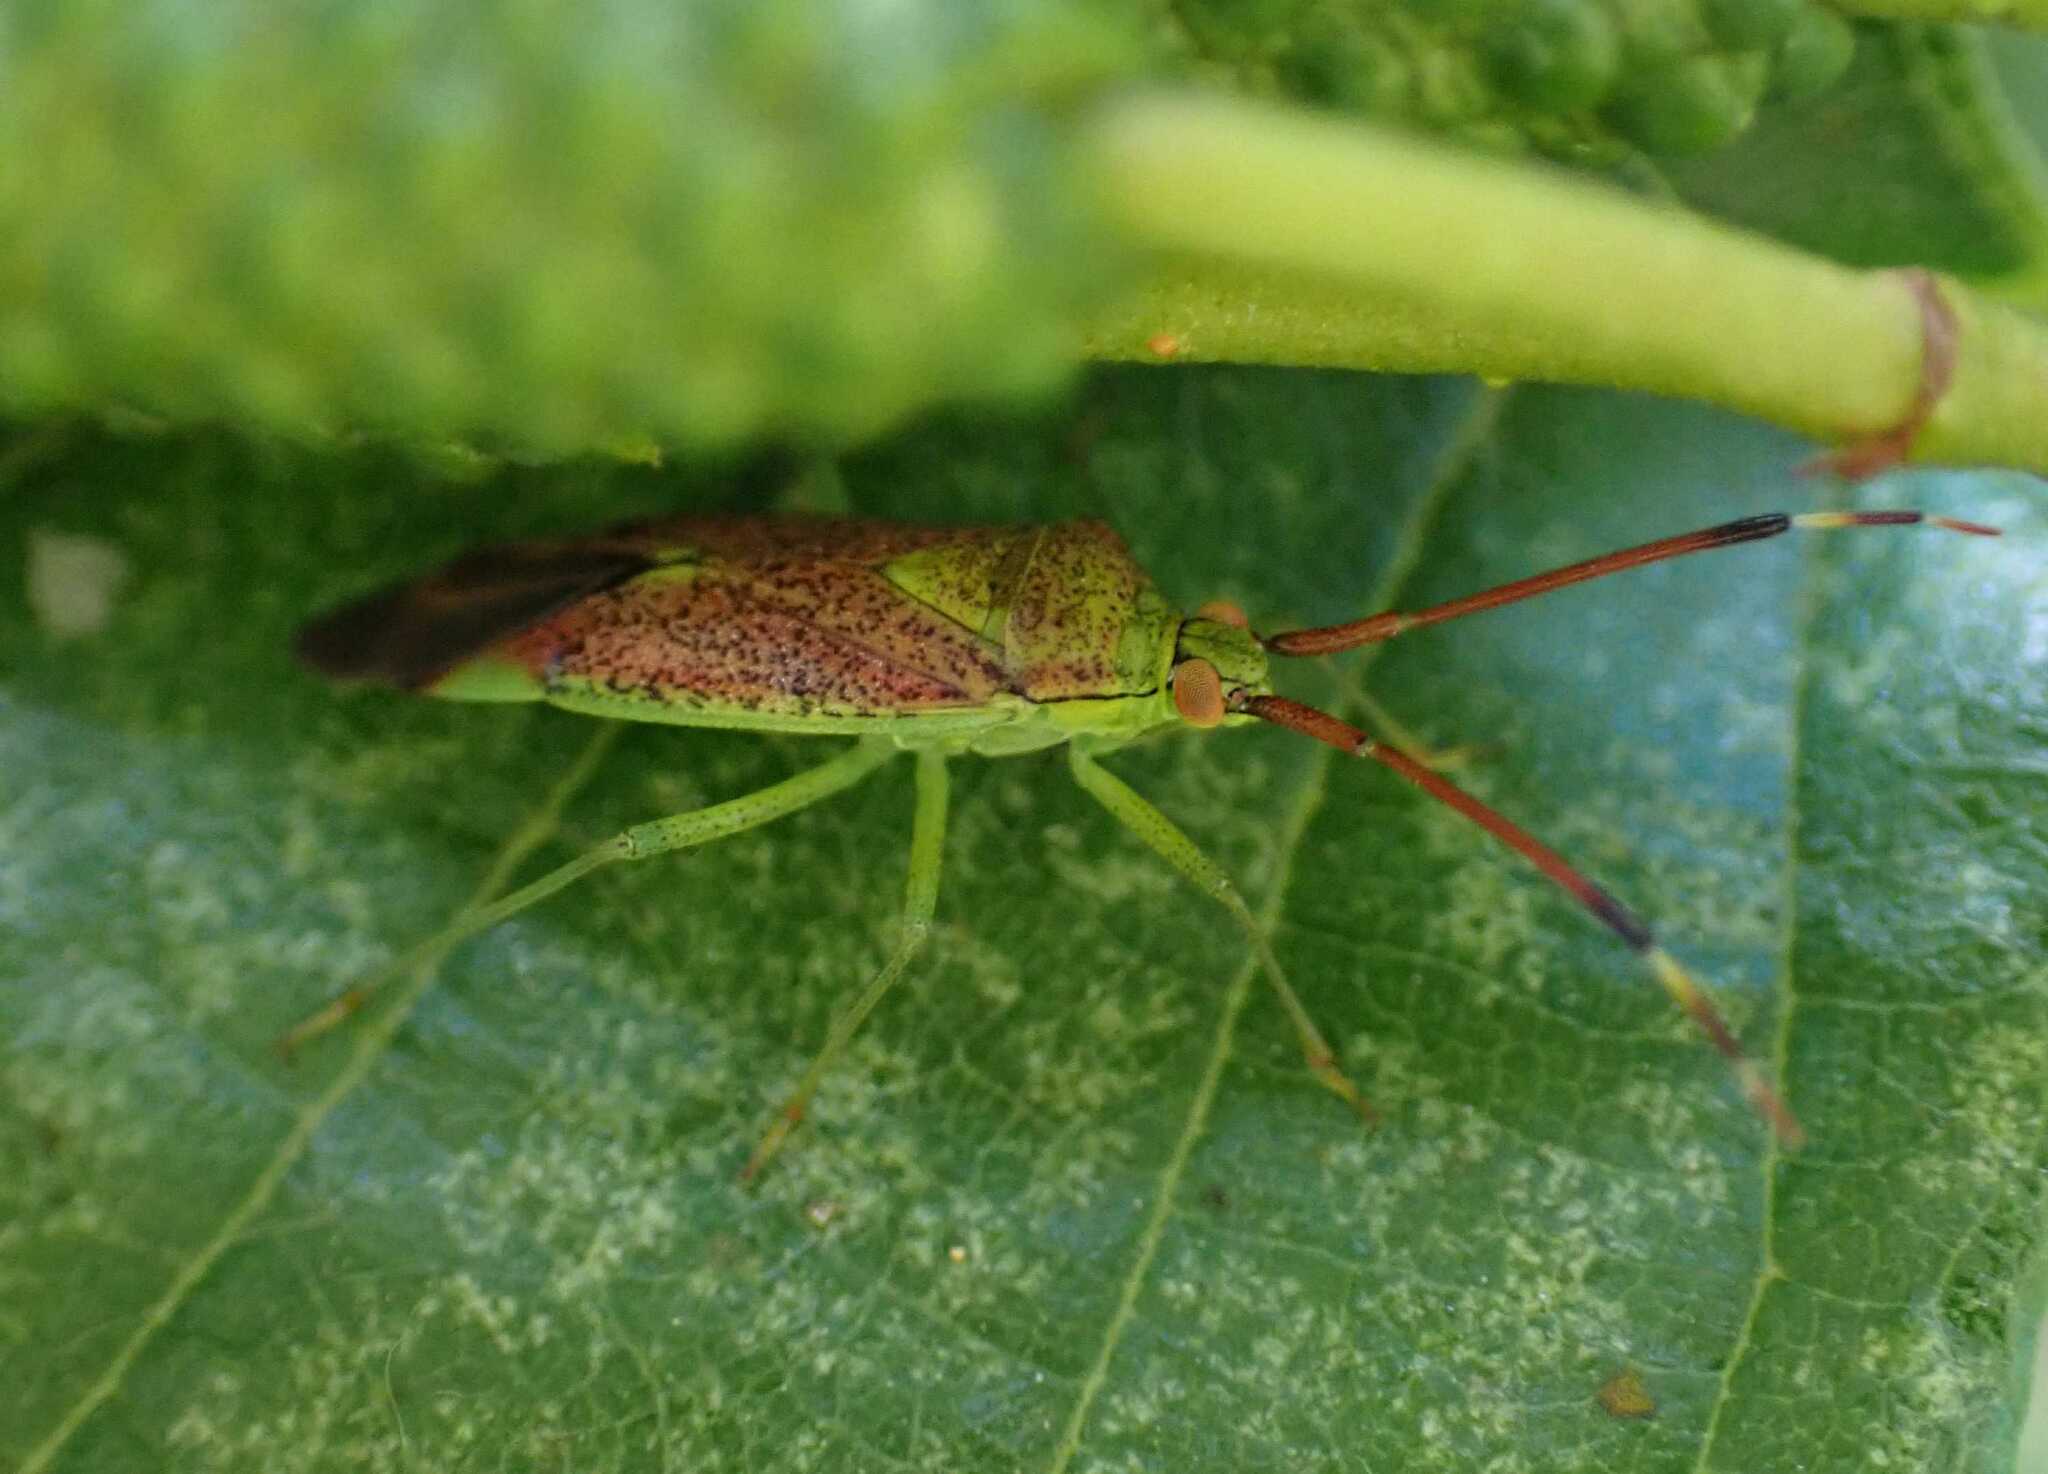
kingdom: Animalia
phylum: Arthropoda
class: Insecta
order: Hemiptera
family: Miridae
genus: Pantilius
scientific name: Pantilius tunicatus
